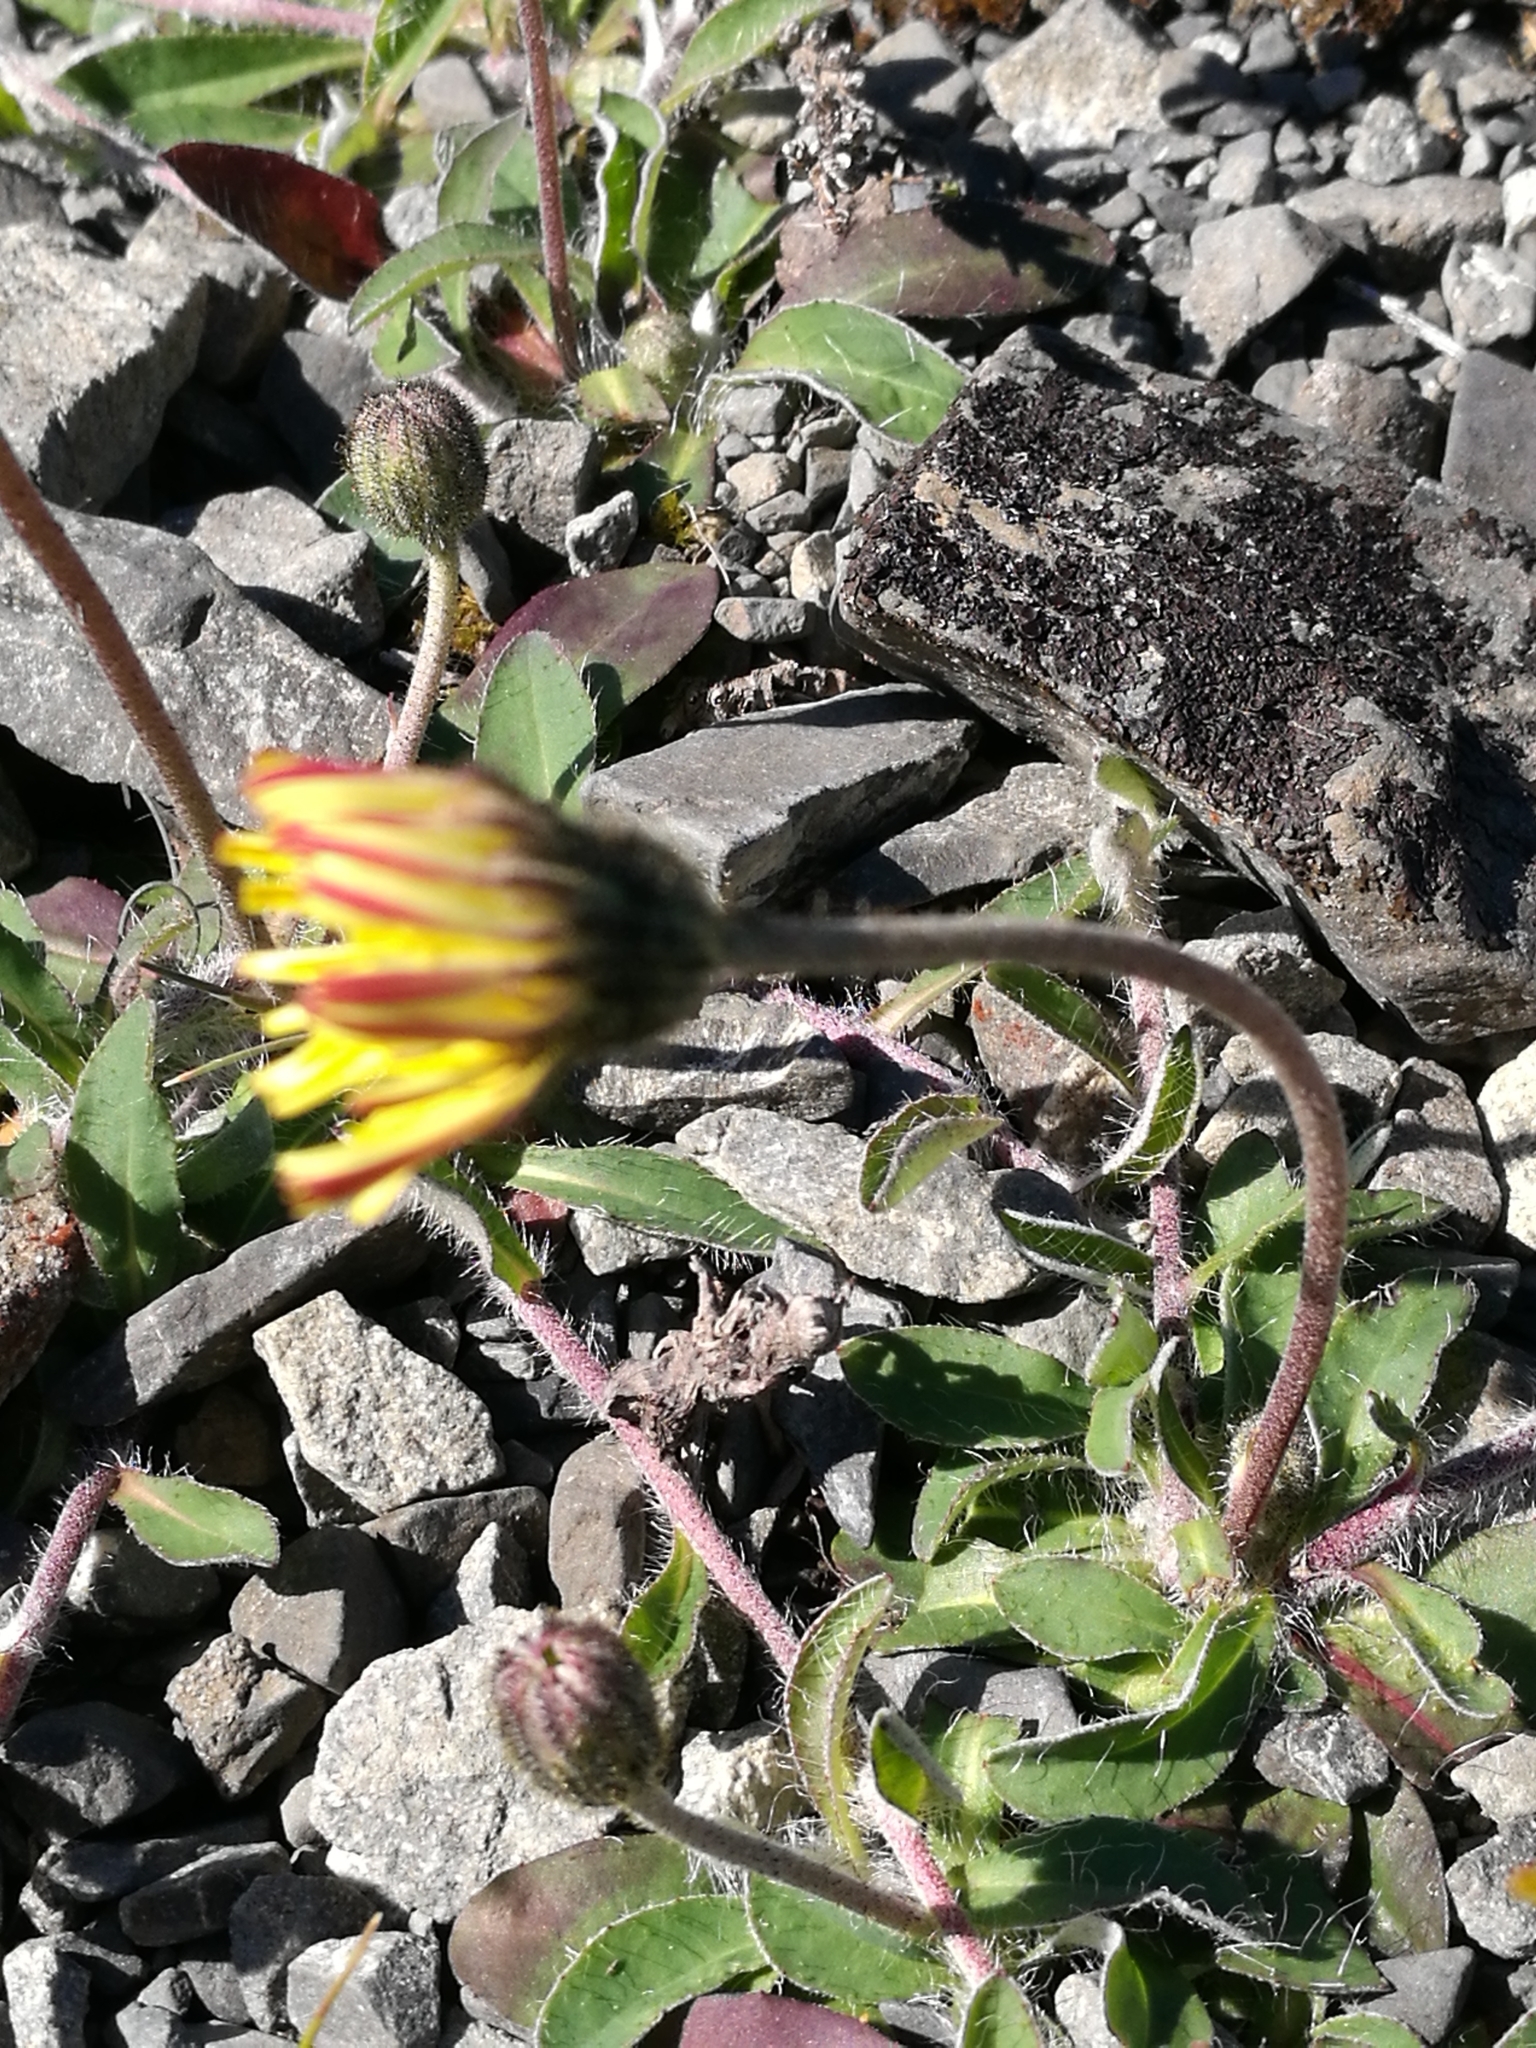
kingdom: Plantae
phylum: Tracheophyta
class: Magnoliopsida
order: Asterales
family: Asteraceae
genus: Pilosella
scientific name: Pilosella officinarum
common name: Mouse-ear hawkweed
